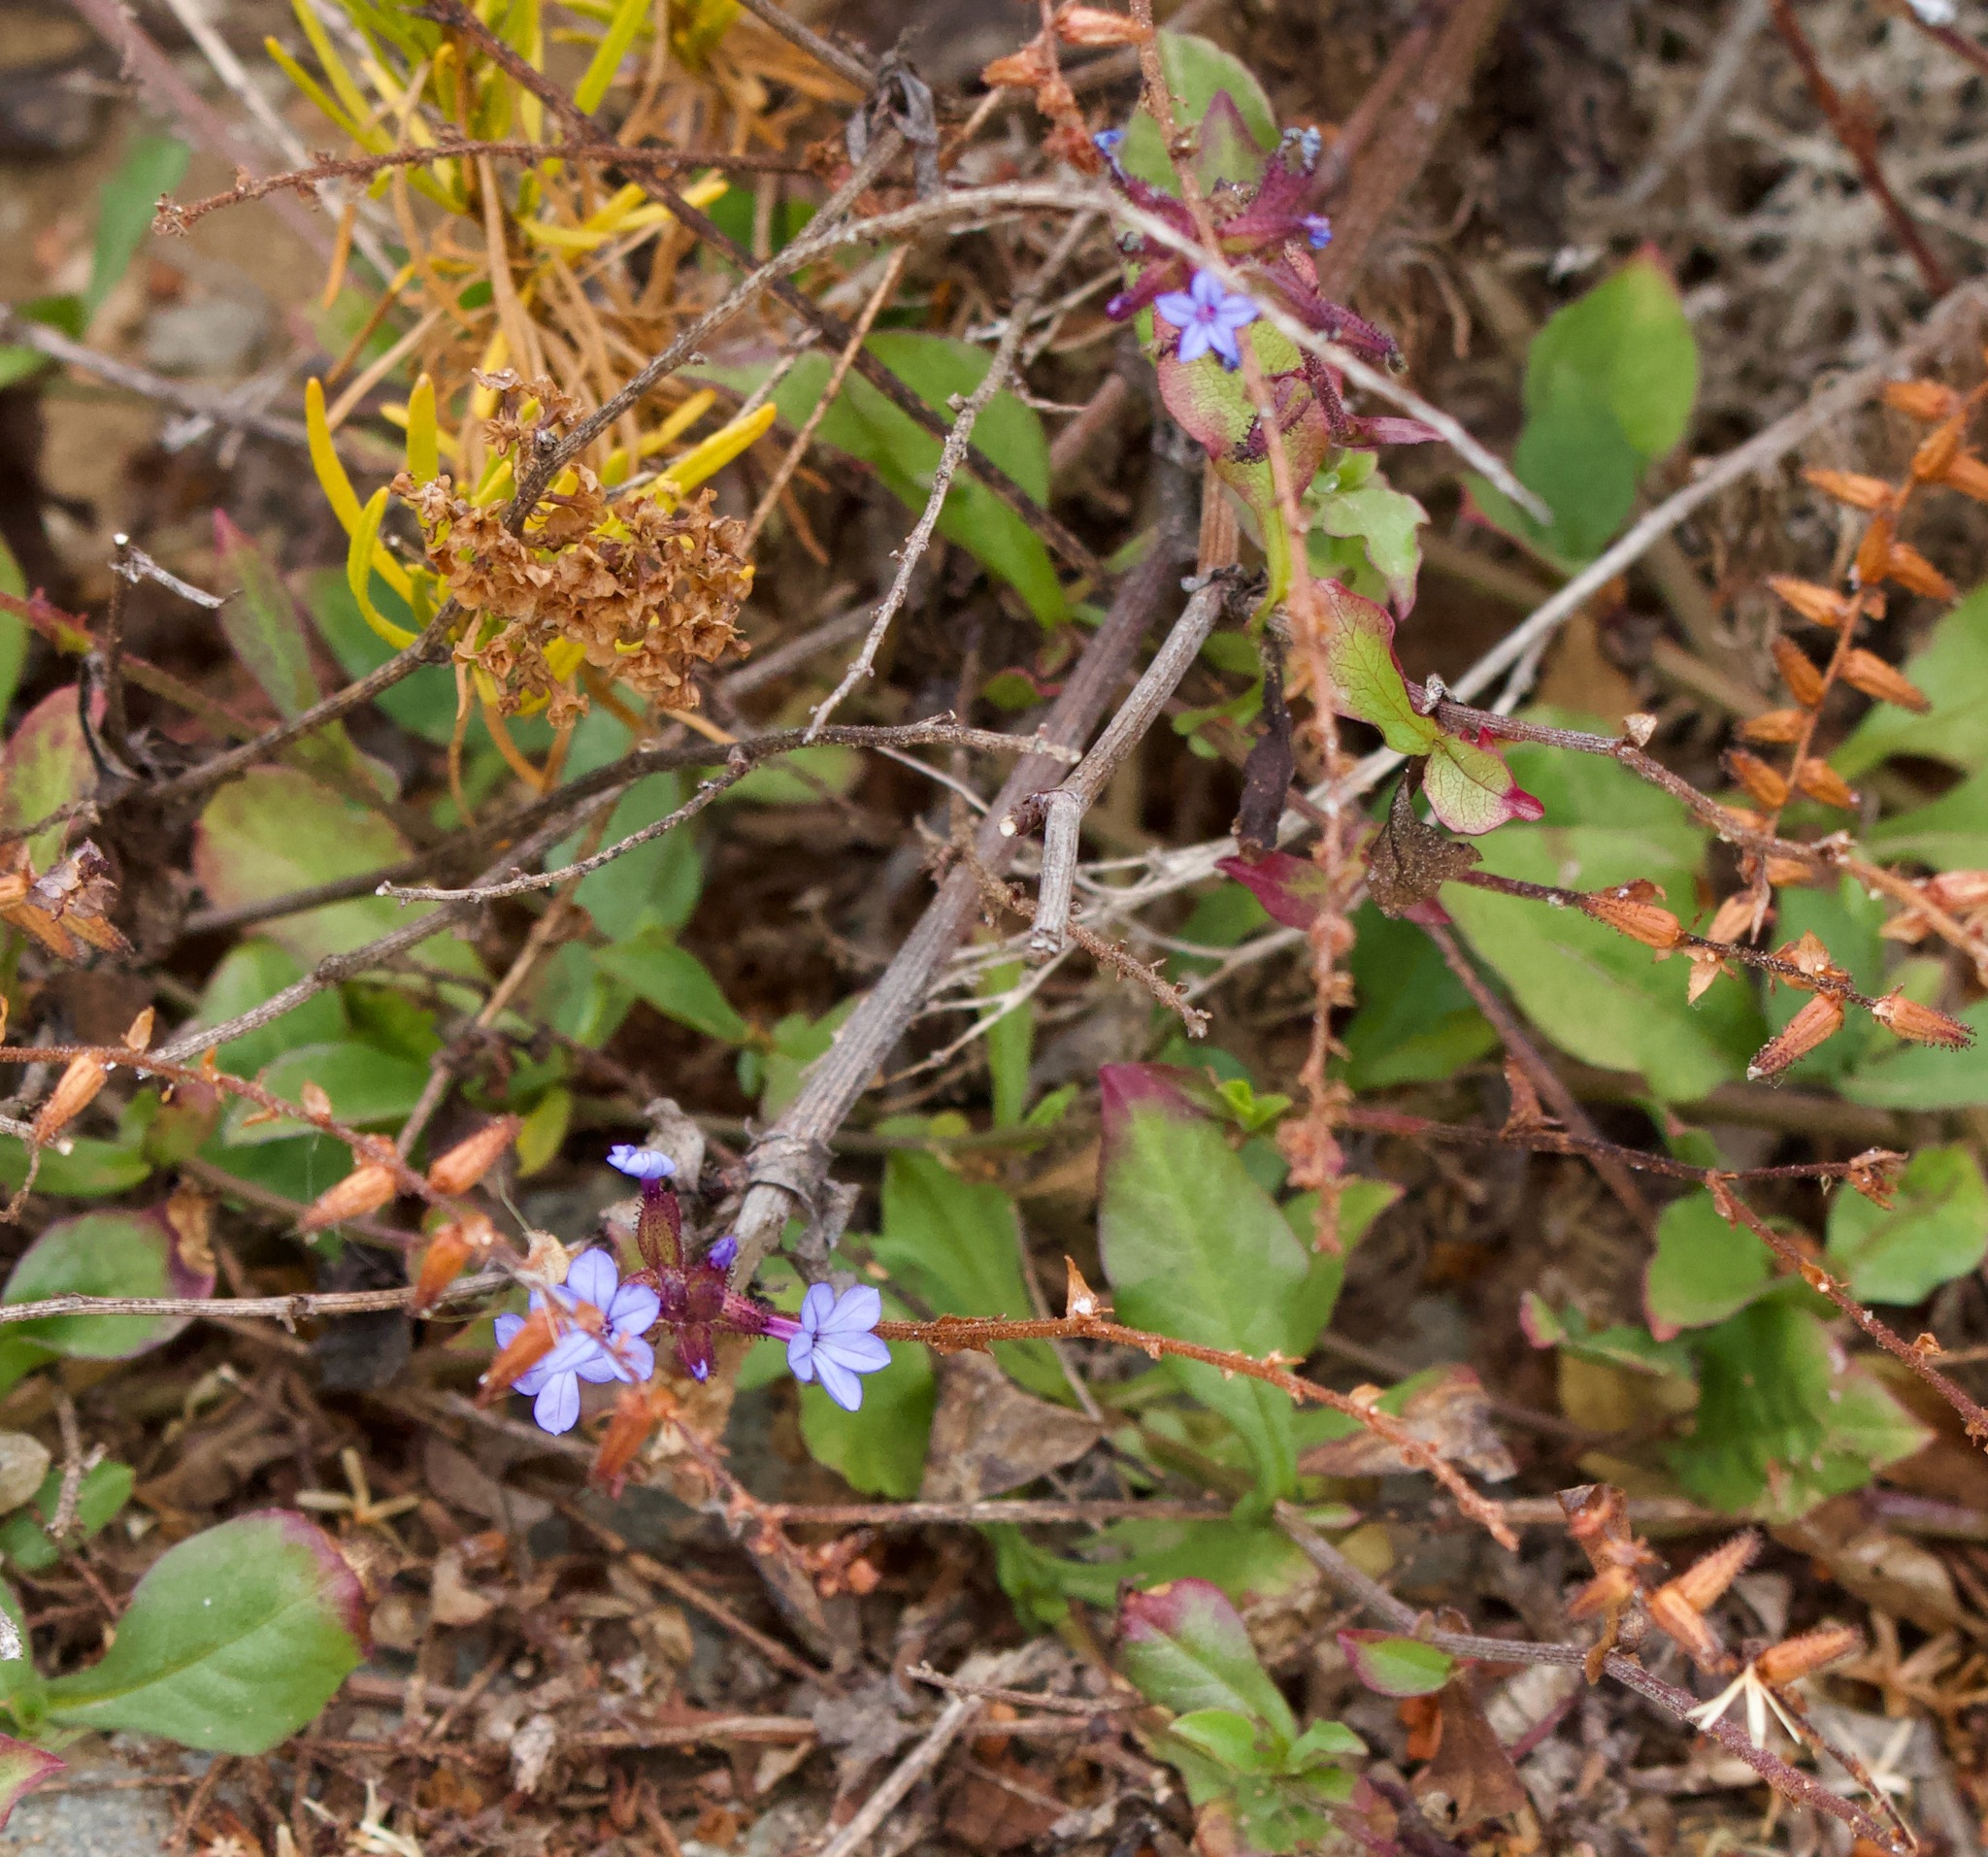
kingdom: Plantae
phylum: Tracheophyta
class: Magnoliopsida
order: Caryophyllales
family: Plumbaginaceae
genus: Plumbago
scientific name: Plumbago caerulea
